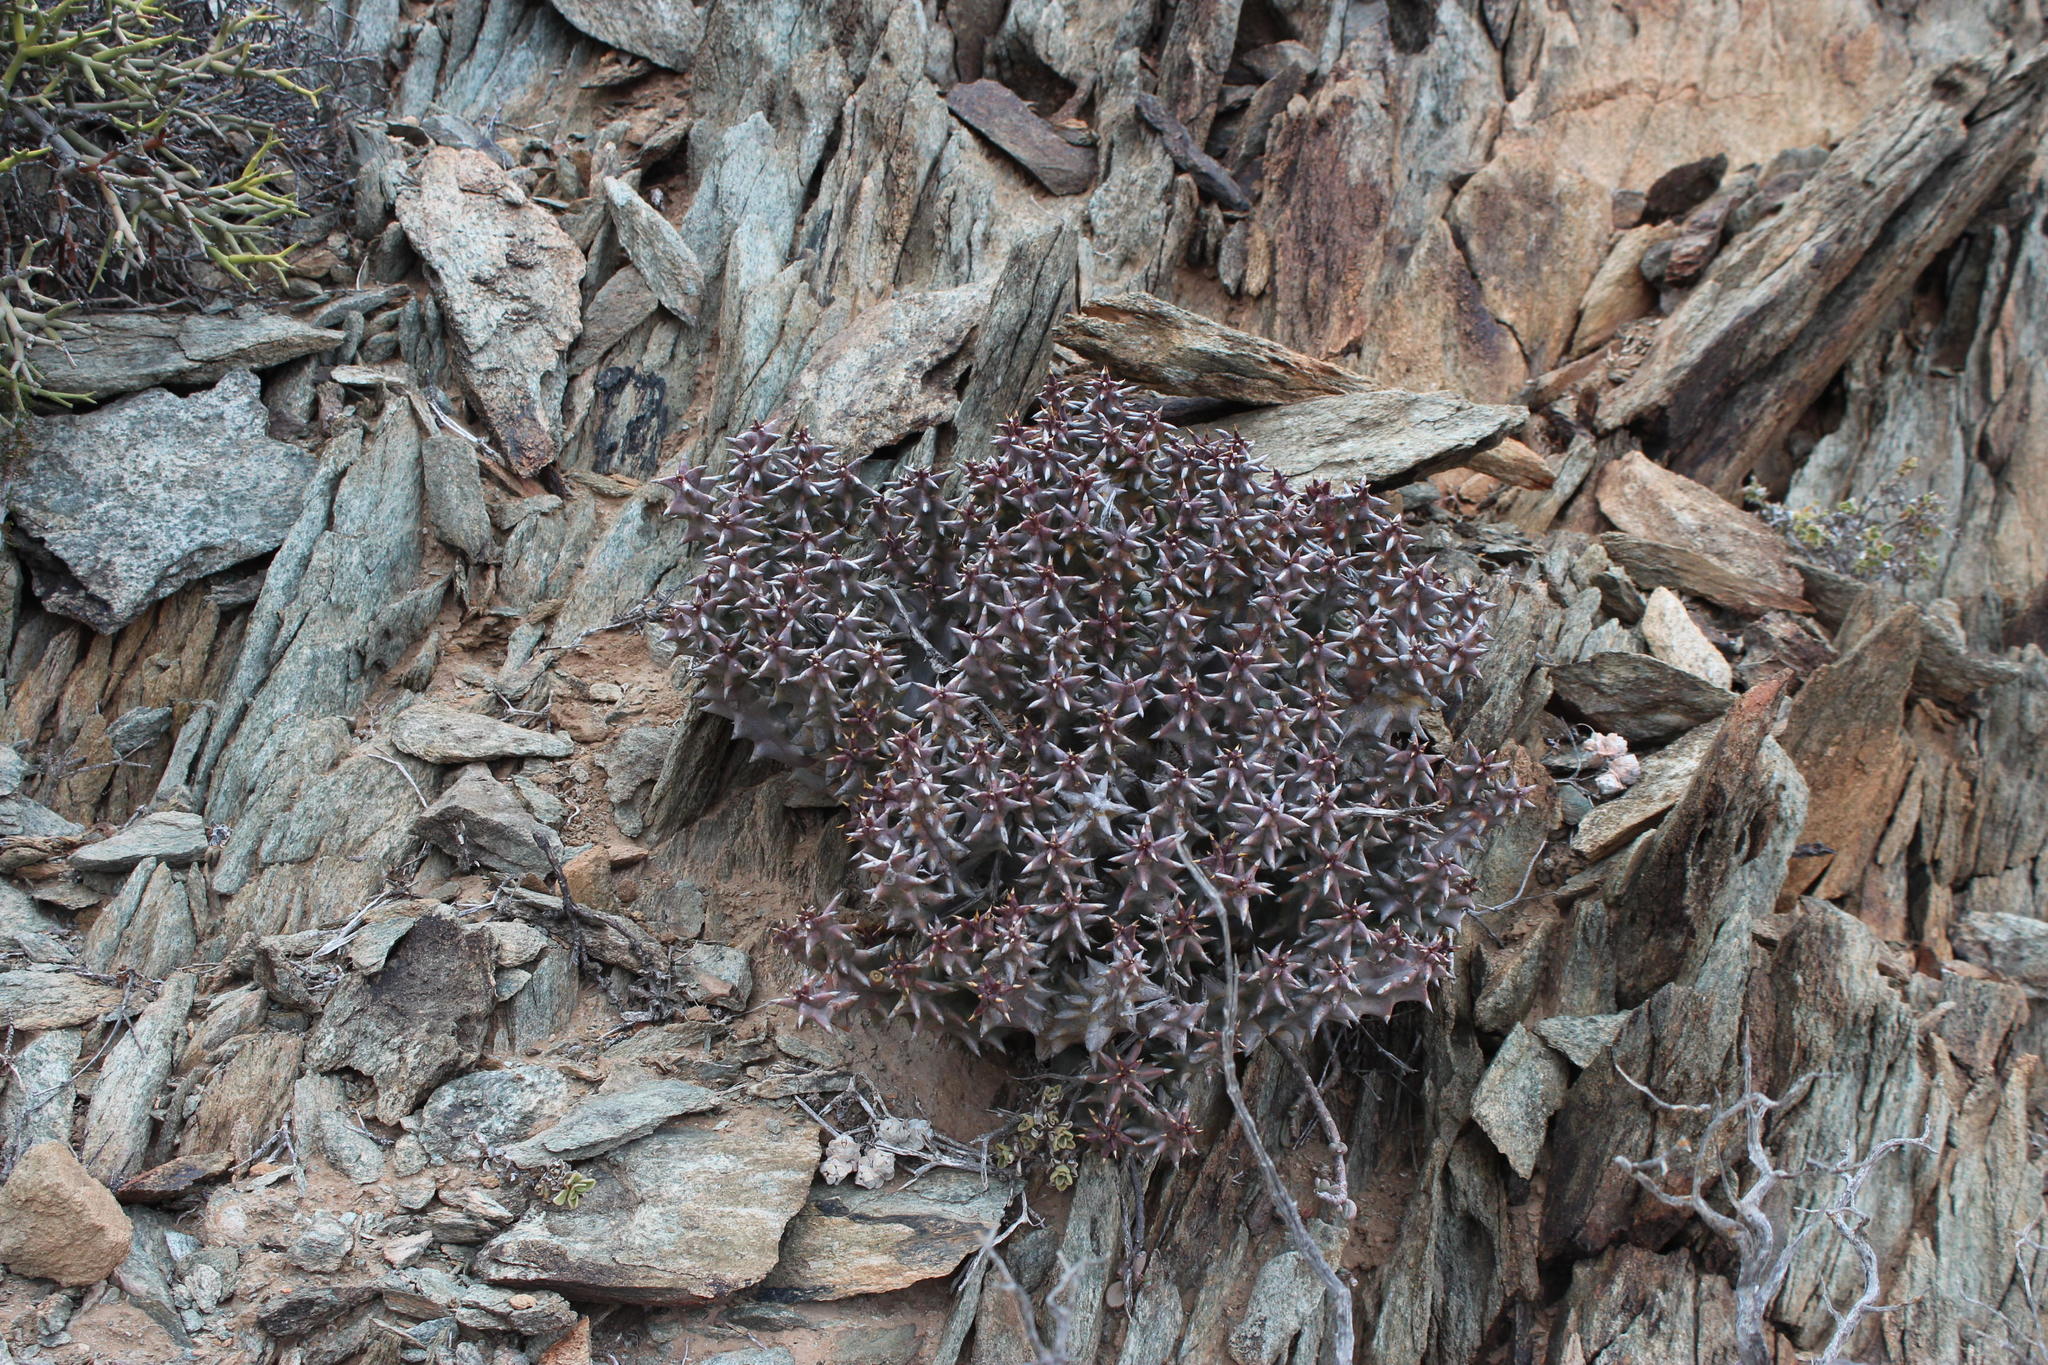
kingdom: Plantae
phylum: Tracheophyta
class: Magnoliopsida
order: Gentianales
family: Apocynaceae
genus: Ceropegia
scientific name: Ceropegia incarnata
